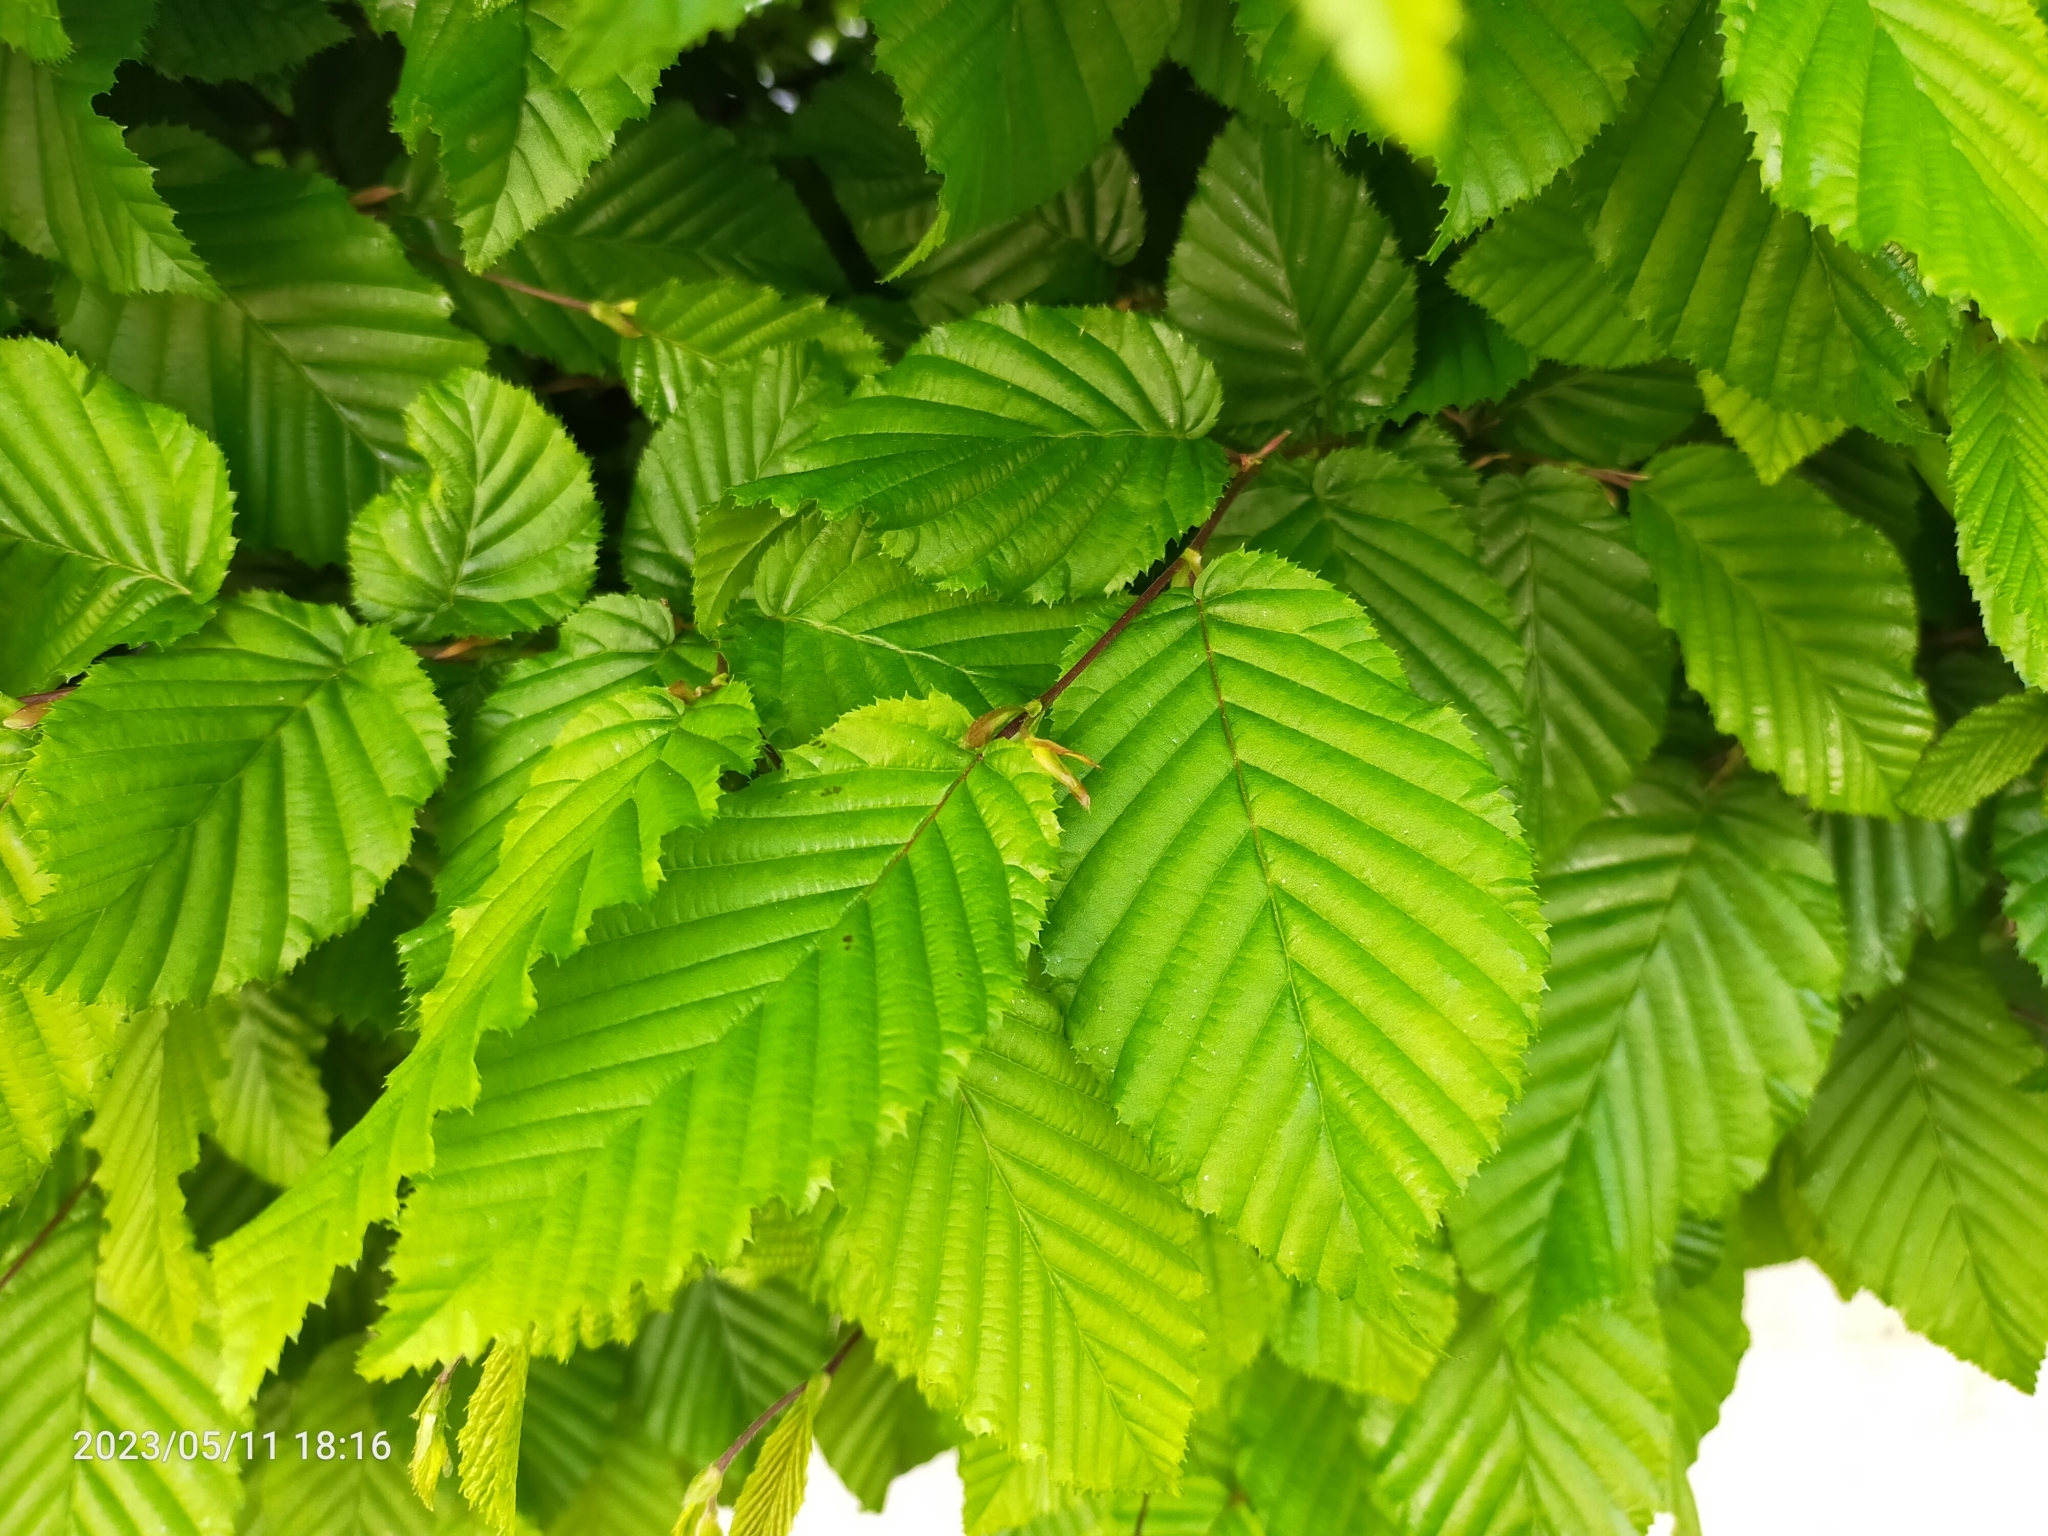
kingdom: Plantae
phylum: Tracheophyta
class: Magnoliopsida
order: Fagales
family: Betulaceae
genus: Carpinus
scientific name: Carpinus betulus
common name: Hornbeam
